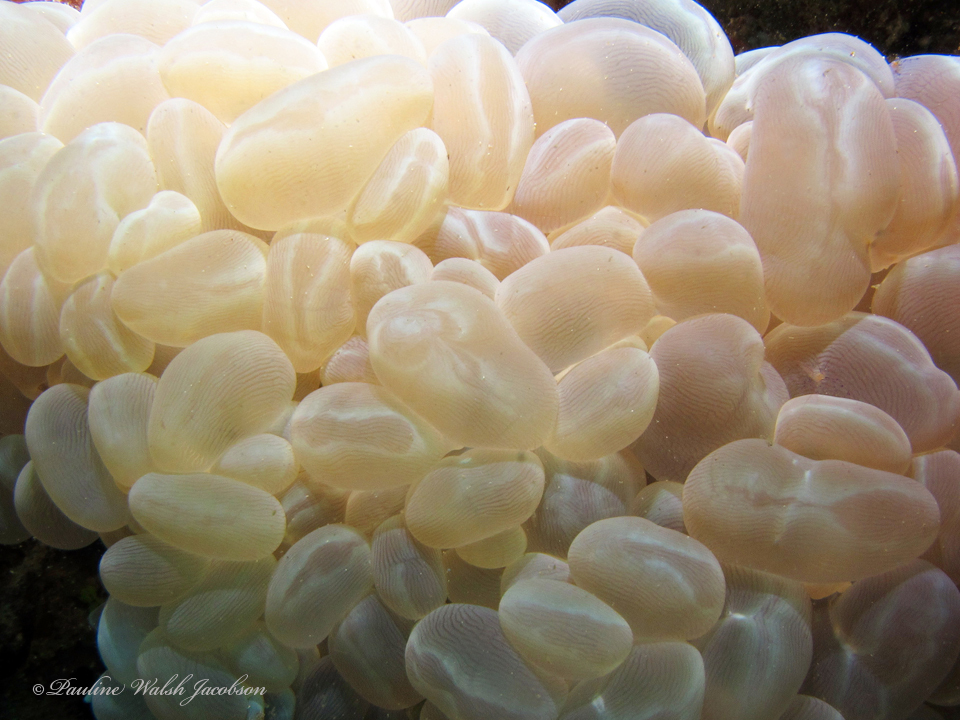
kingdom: Animalia
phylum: Cnidaria
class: Anthozoa
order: Scleractinia
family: Plerogyridae
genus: Plerogyra
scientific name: Plerogyra sinuosa
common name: Bubble coral
